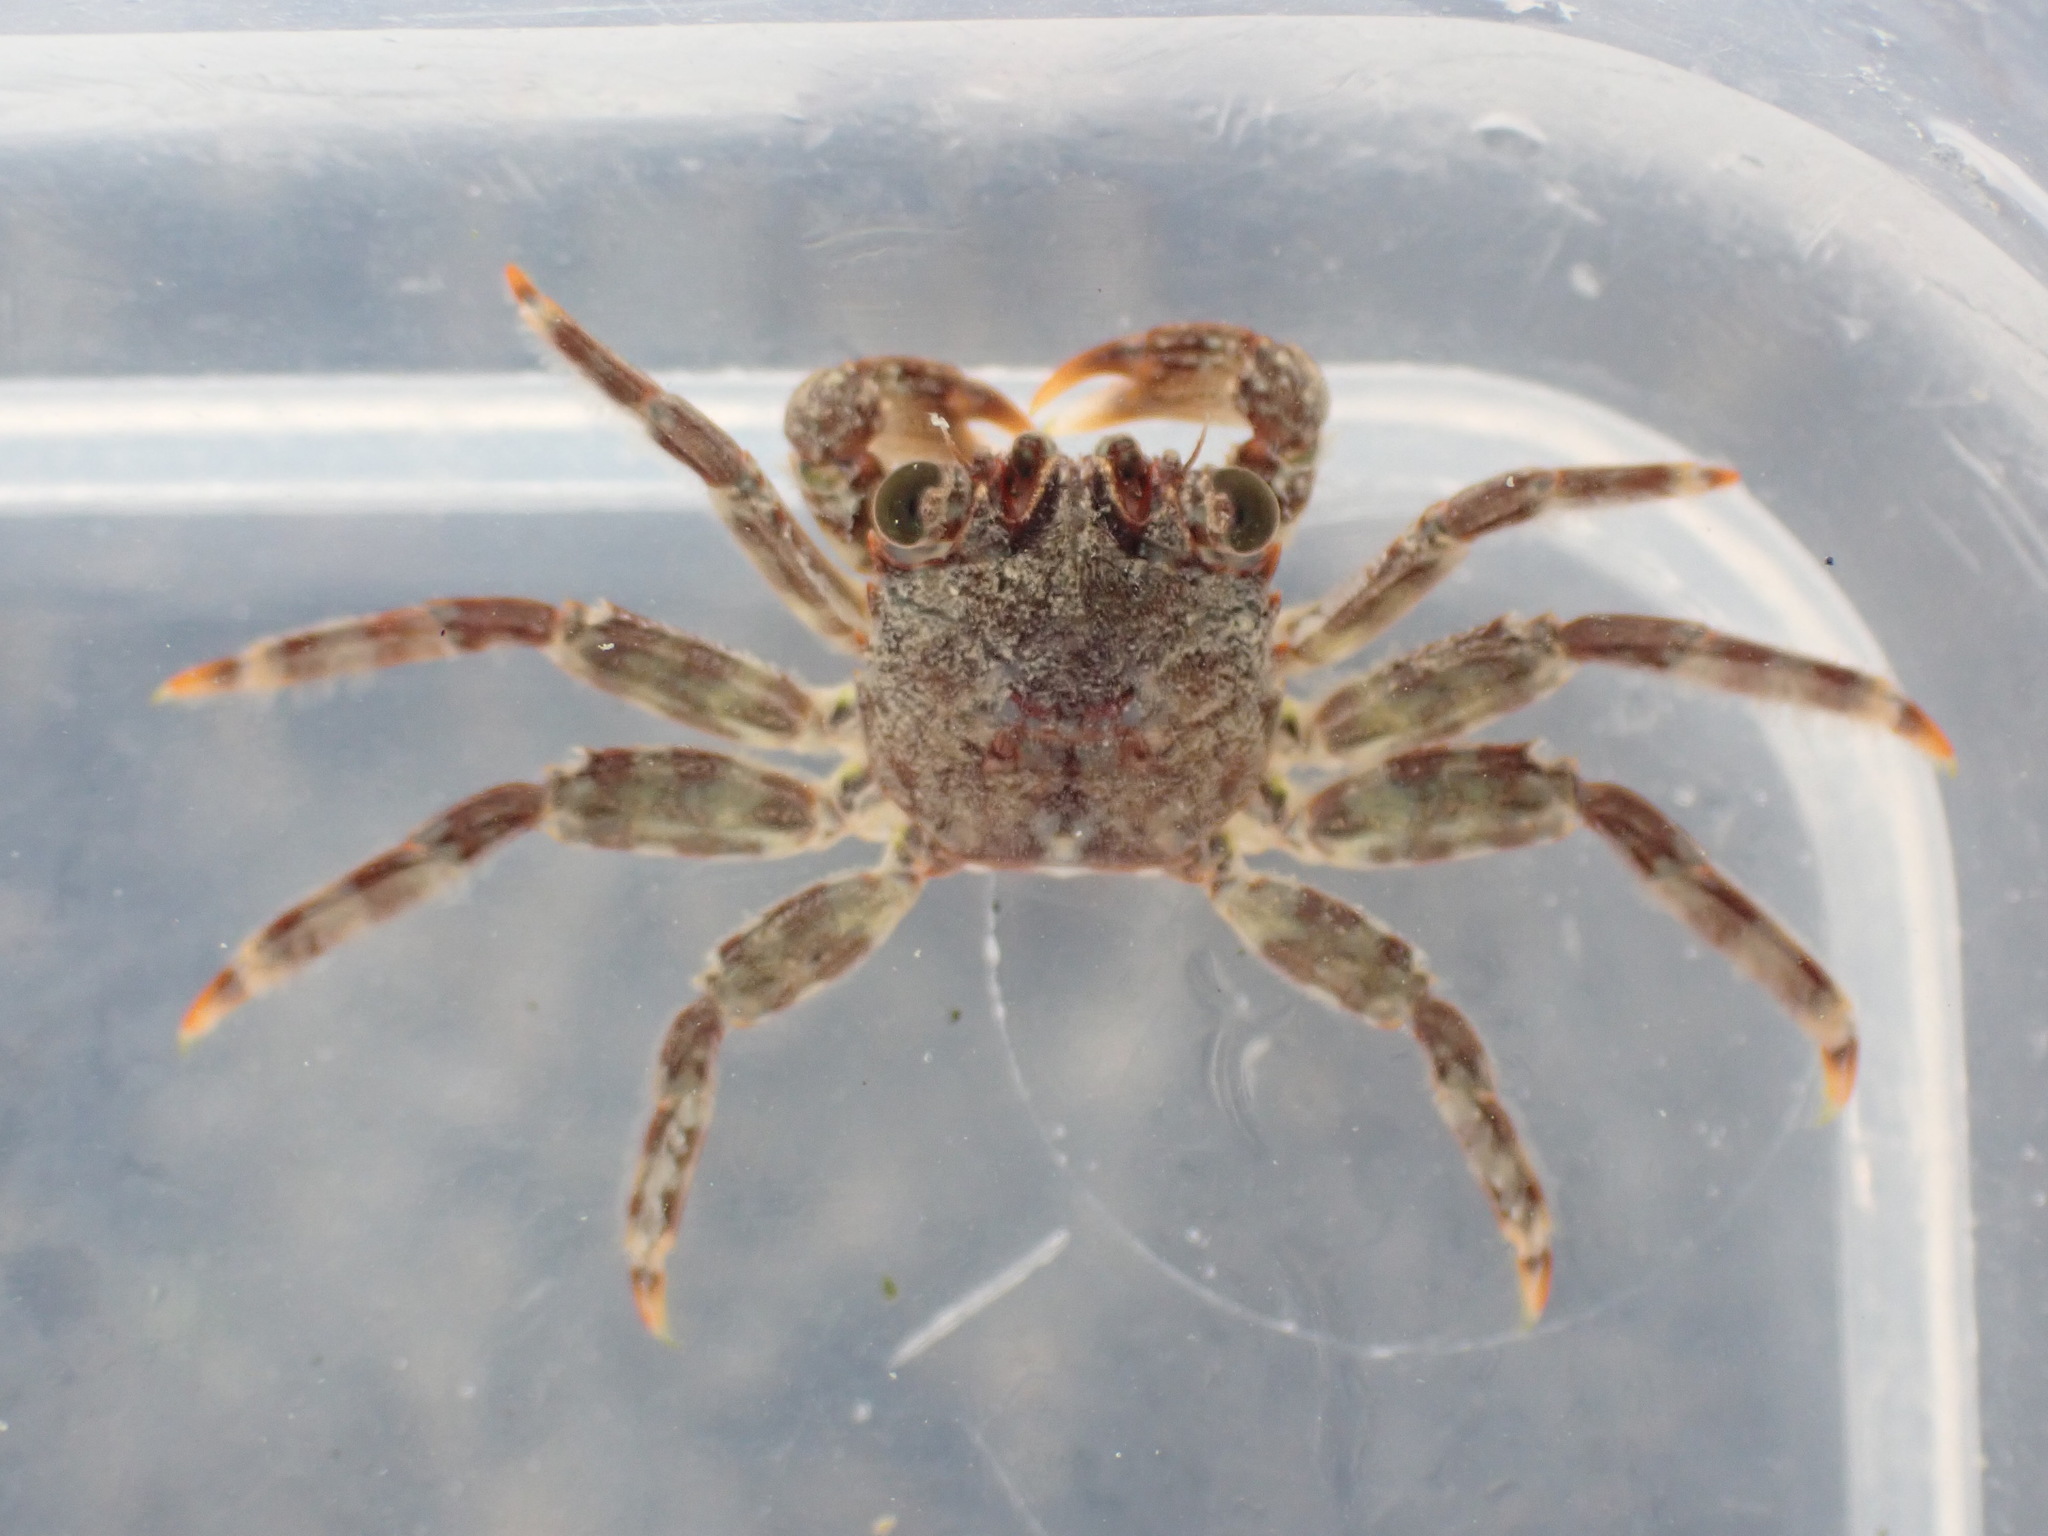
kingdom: Animalia
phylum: Arthropoda
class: Malacostraca
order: Decapoda
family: Plagusiidae
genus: Guinusia
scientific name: Guinusia chabrus
